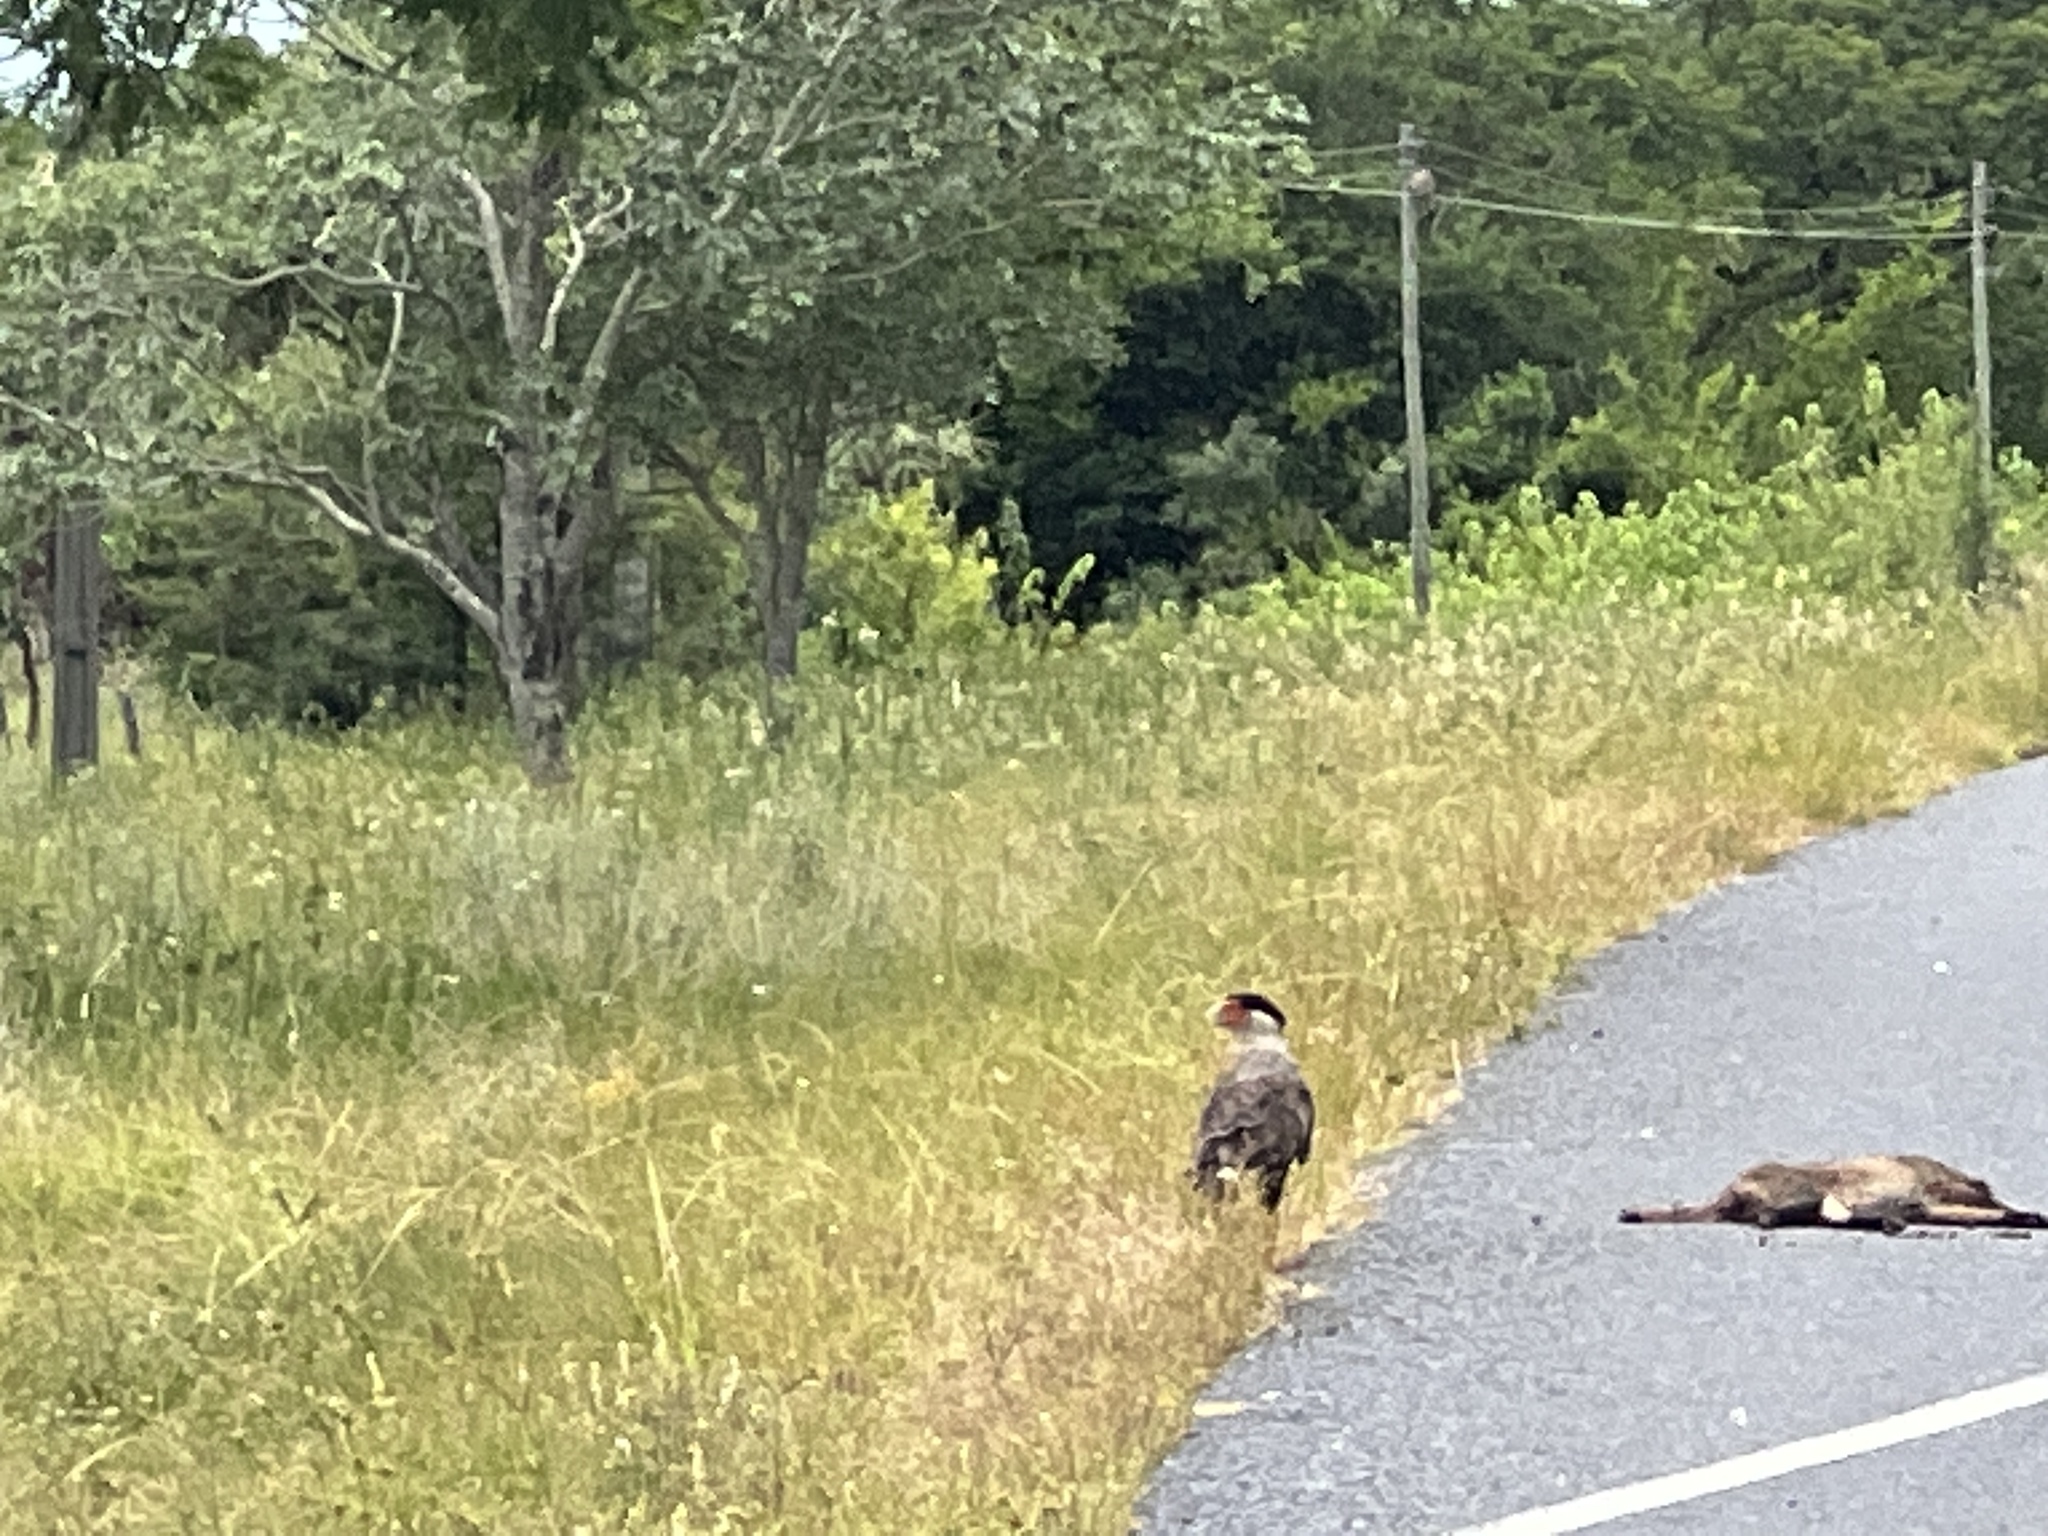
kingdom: Animalia
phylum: Chordata
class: Aves
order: Falconiformes
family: Falconidae
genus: Caracara
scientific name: Caracara plancus
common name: Southern caracara
